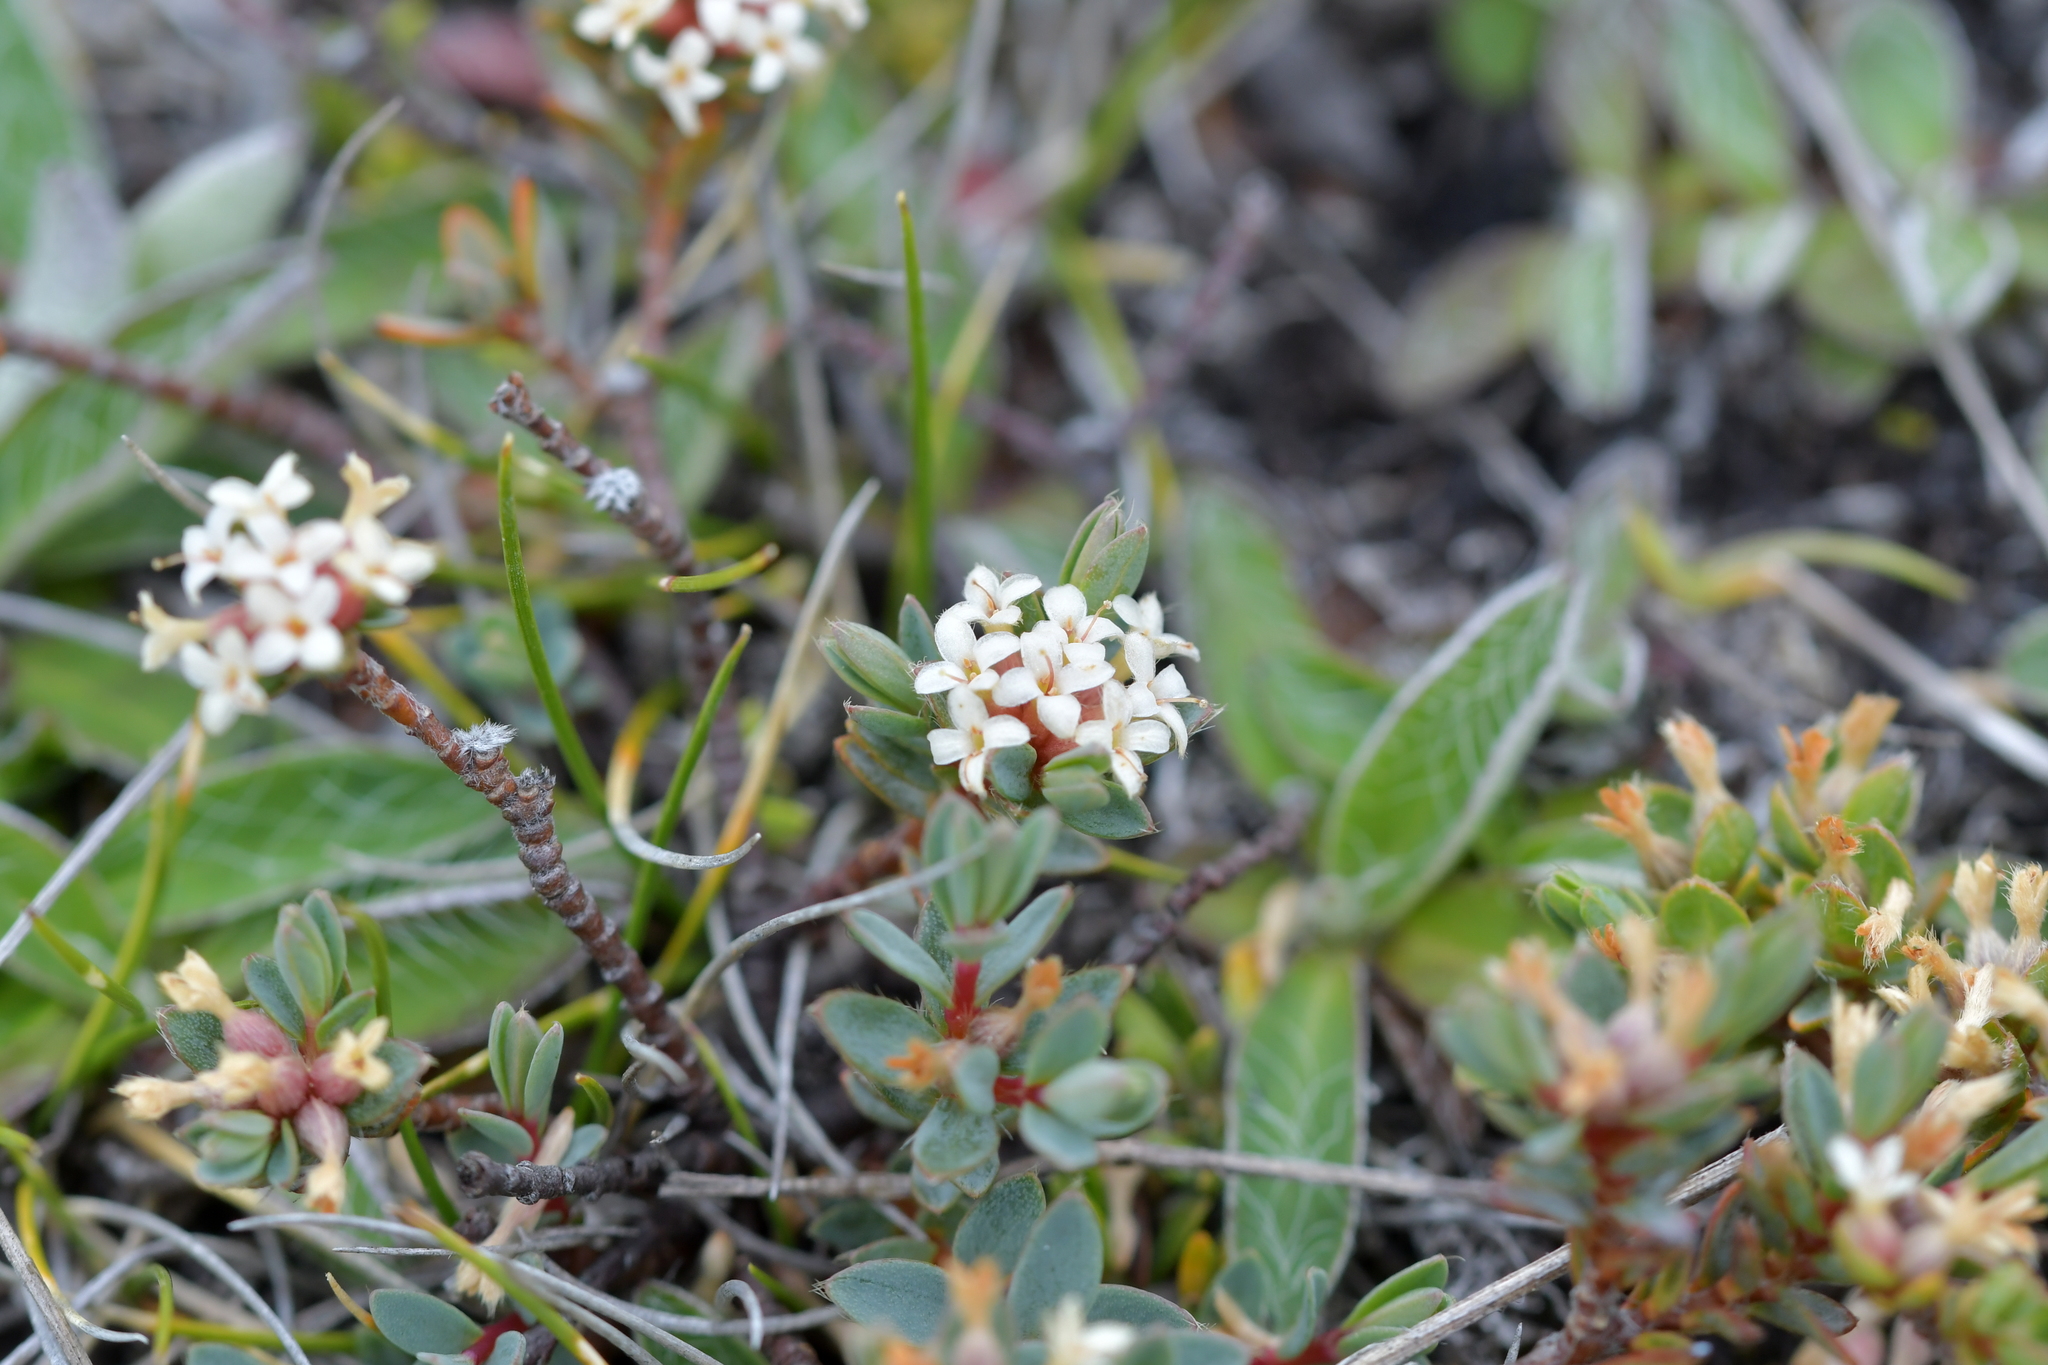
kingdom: Plantae
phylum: Tracheophyta
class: Magnoliopsida
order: Malvales
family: Thymelaeaceae
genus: Pimelea
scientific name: Pimelea oreophila
